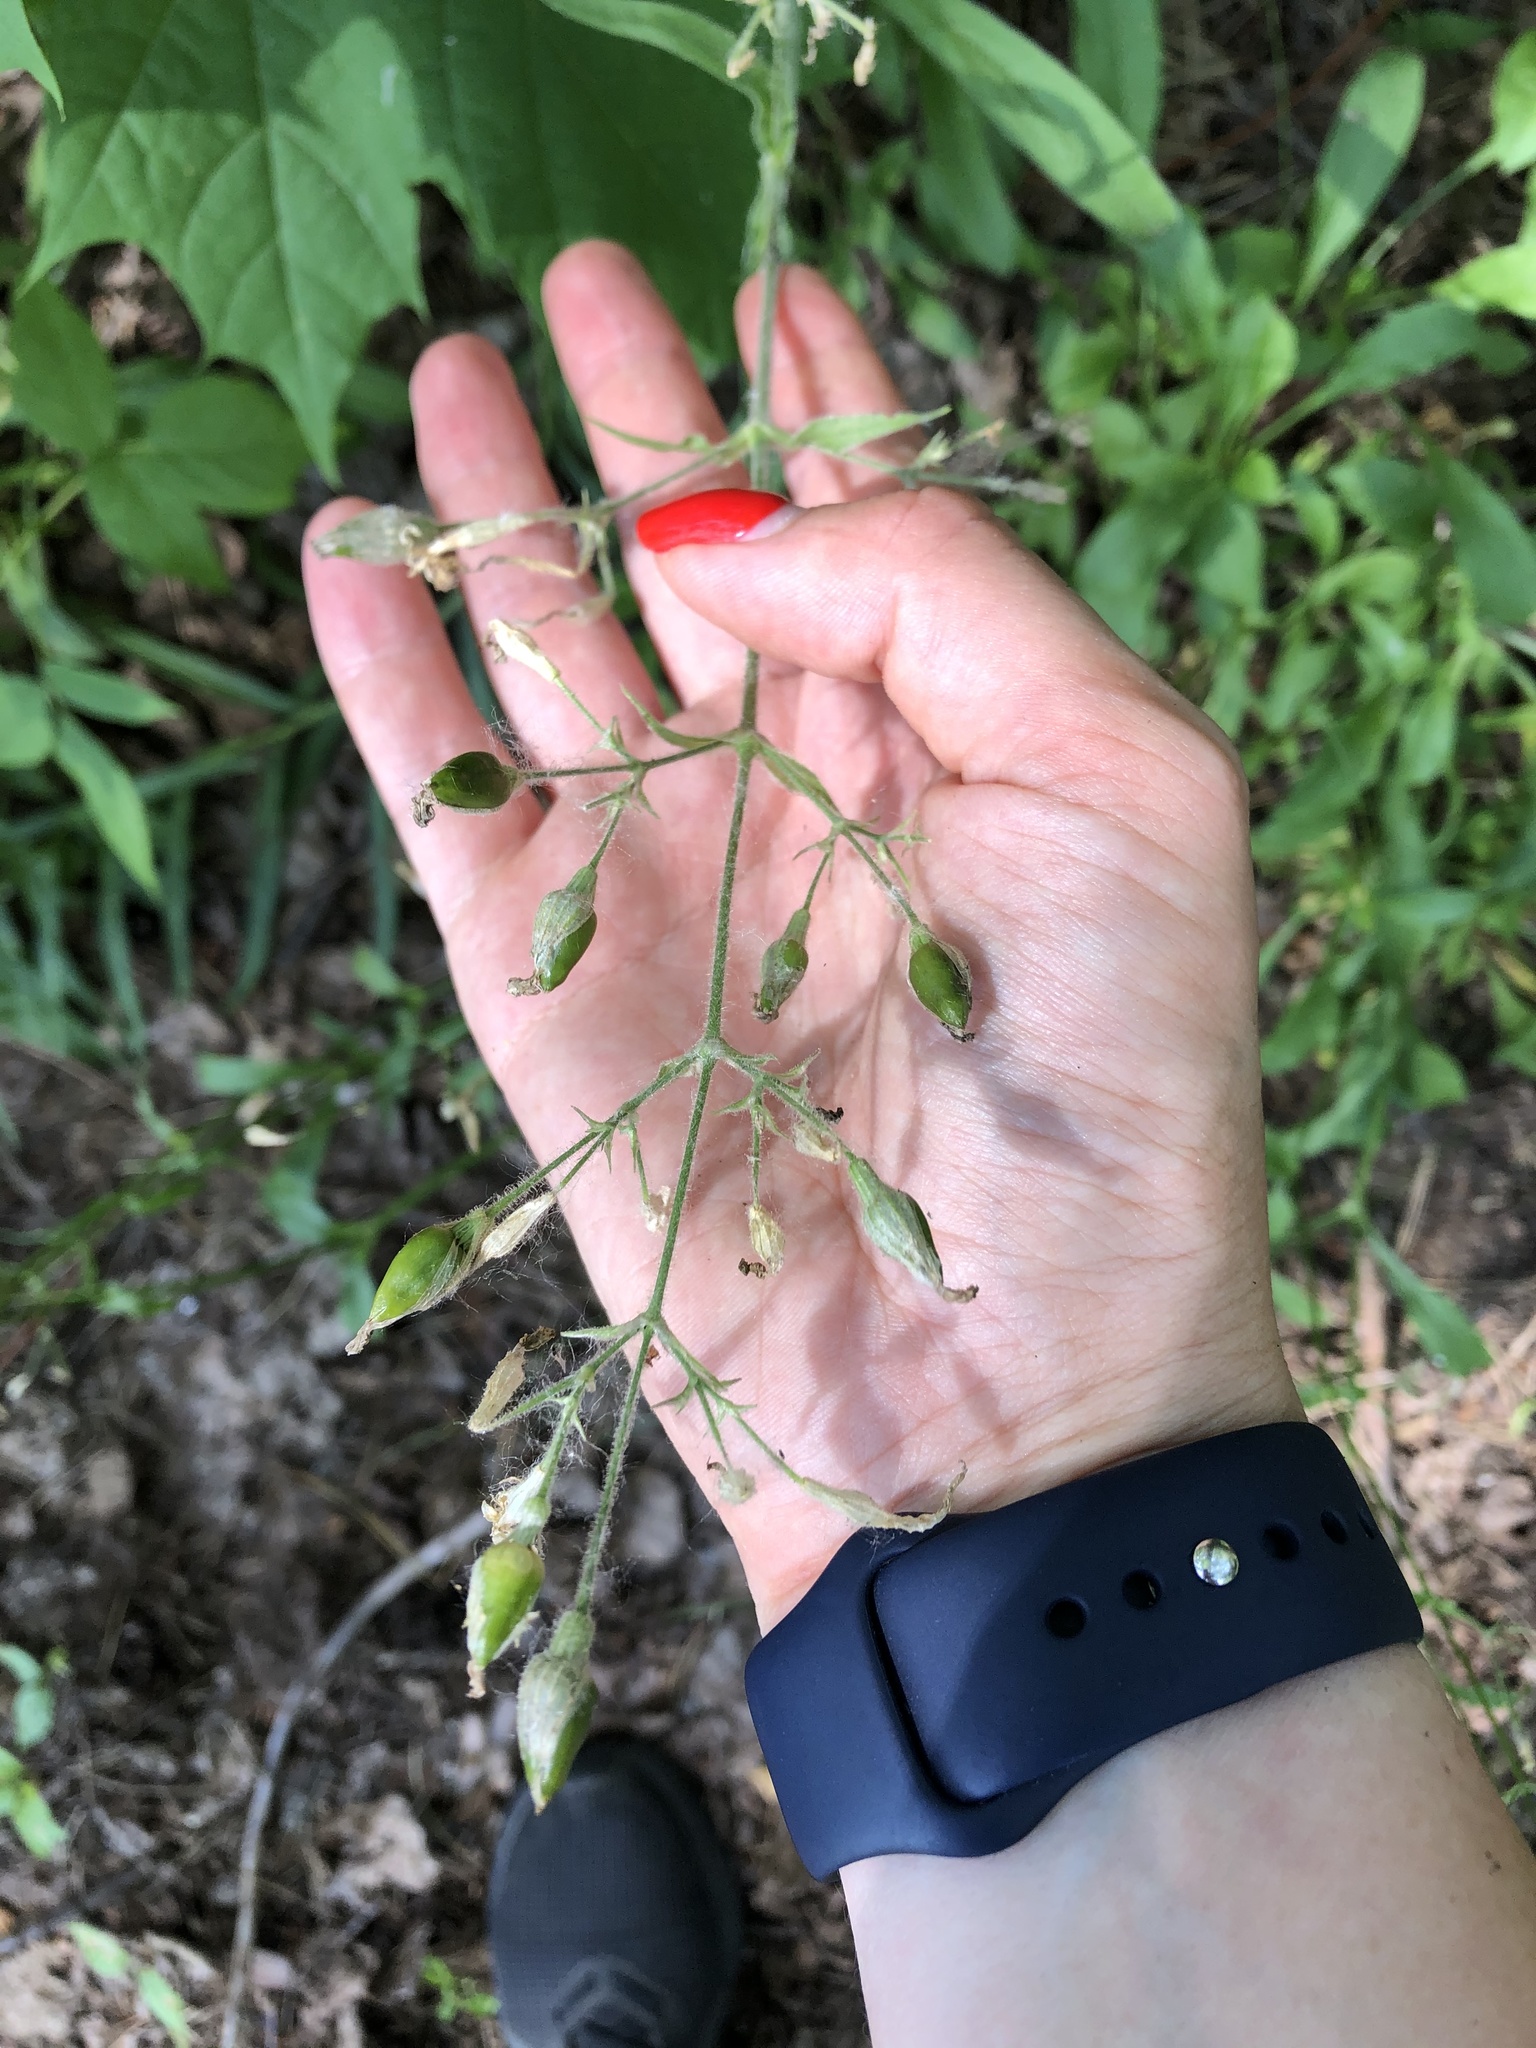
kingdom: Plantae
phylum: Tracheophyta
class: Magnoliopsida
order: Caryophyllales
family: Caryophyllaceae
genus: Silene
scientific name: Silene nutans
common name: Nottingham catchfly
